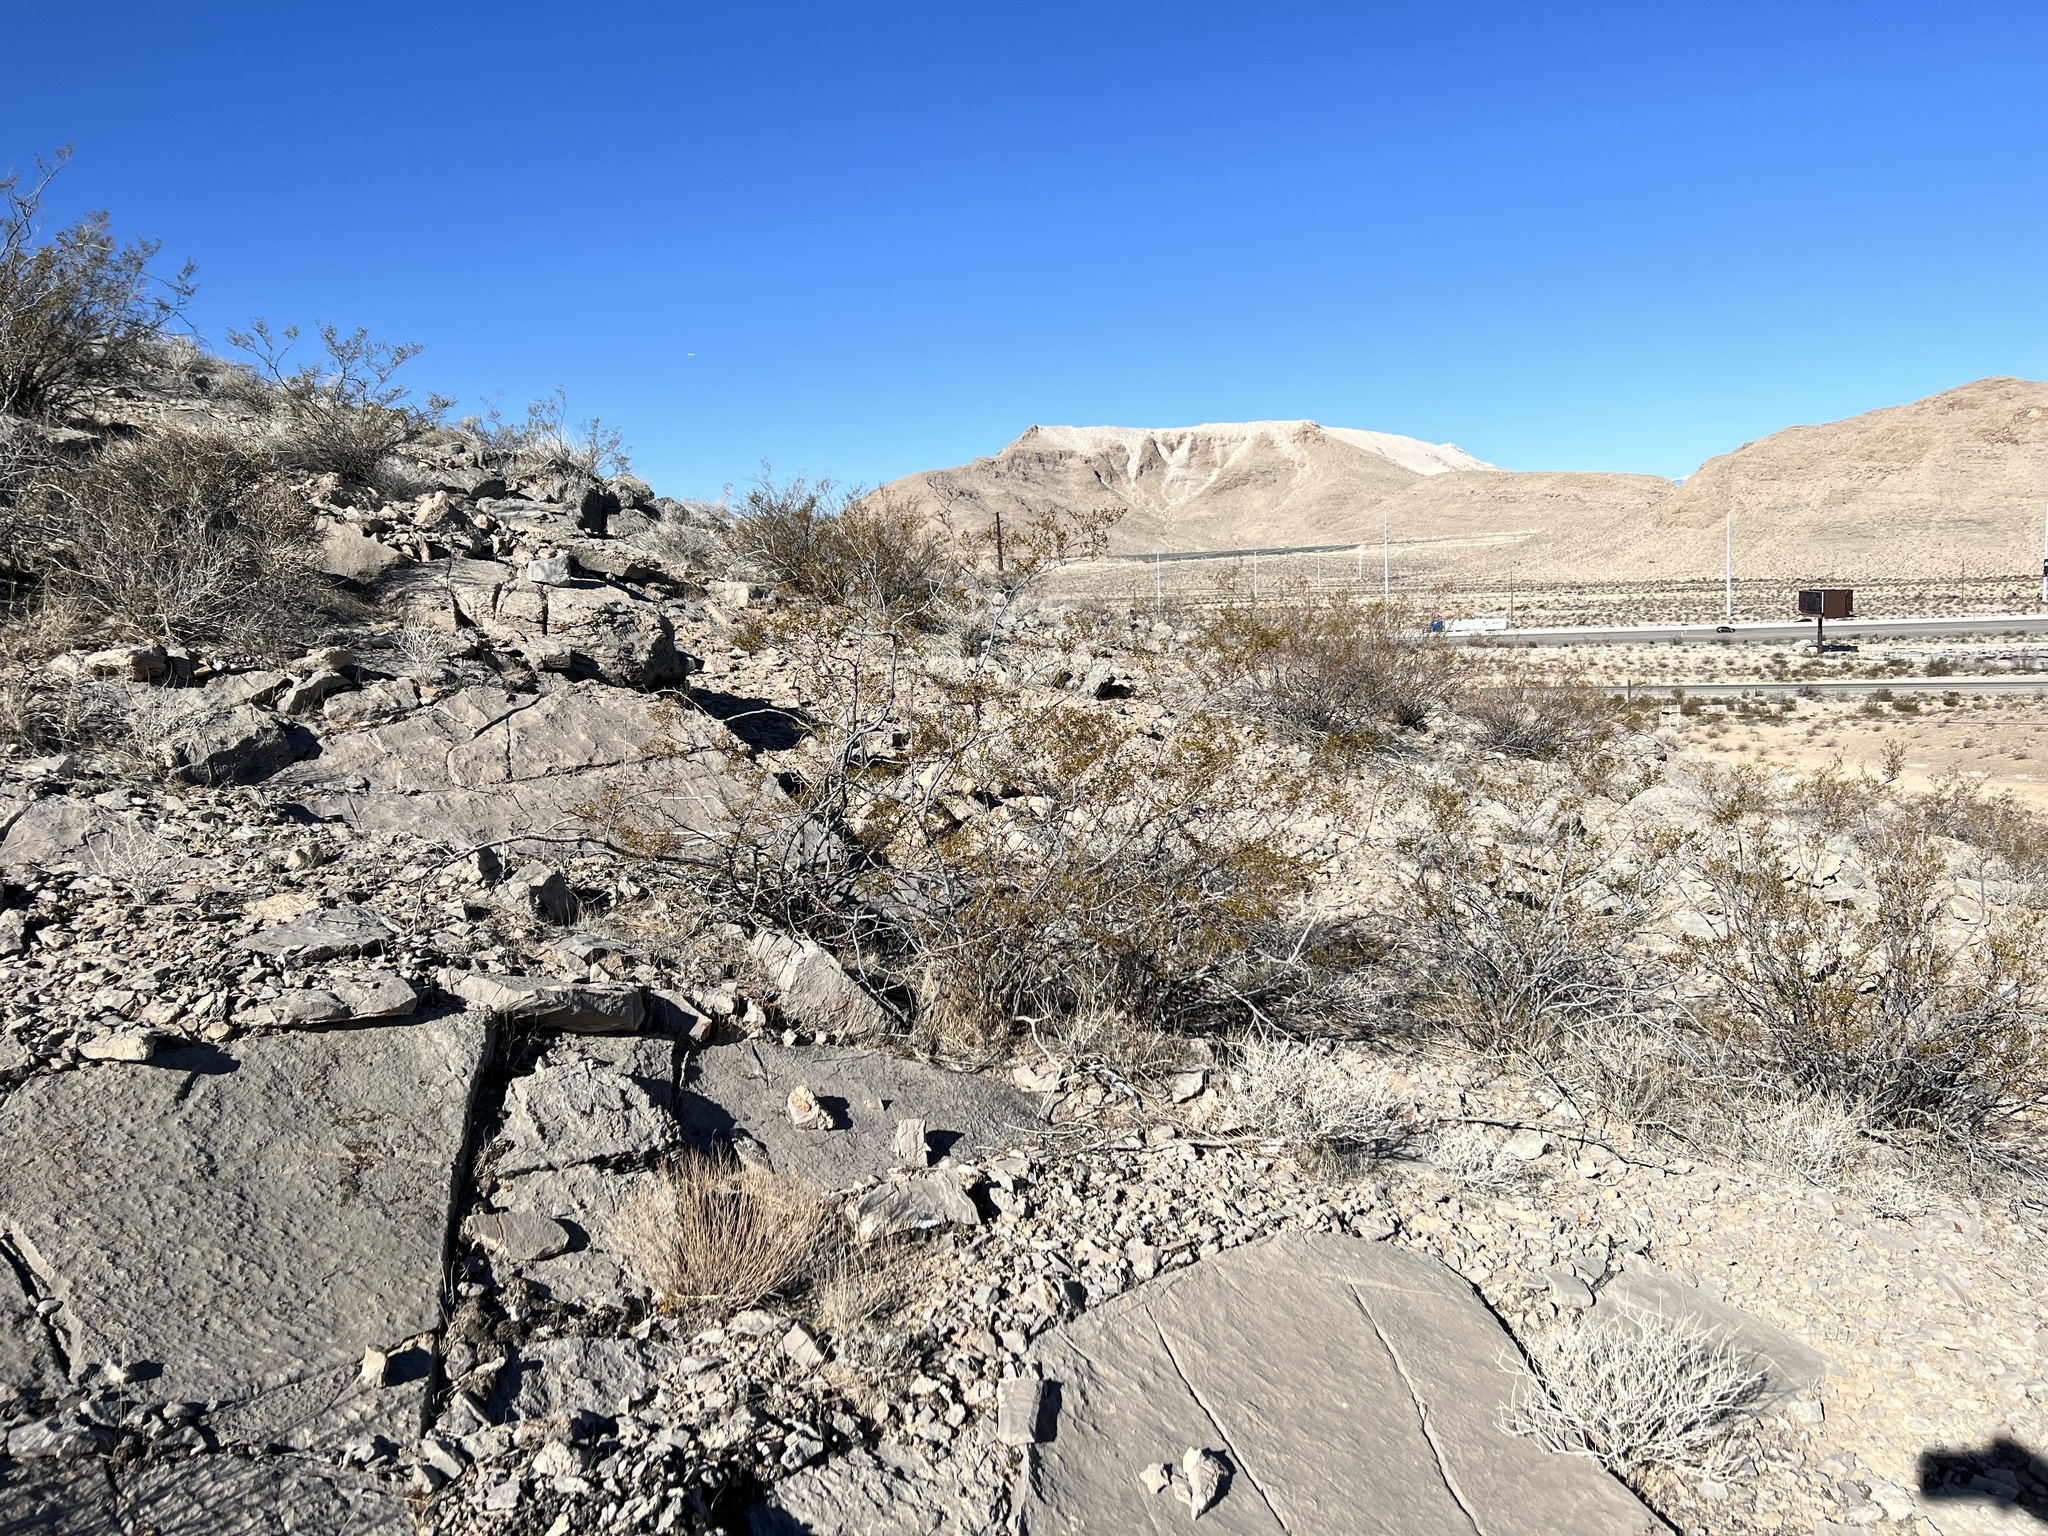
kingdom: Plantae
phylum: Tracheophyta
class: Magnoliopsida
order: Zygophyllales
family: Zygophyllaceae
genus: Larrea
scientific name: Larrea tridentata
